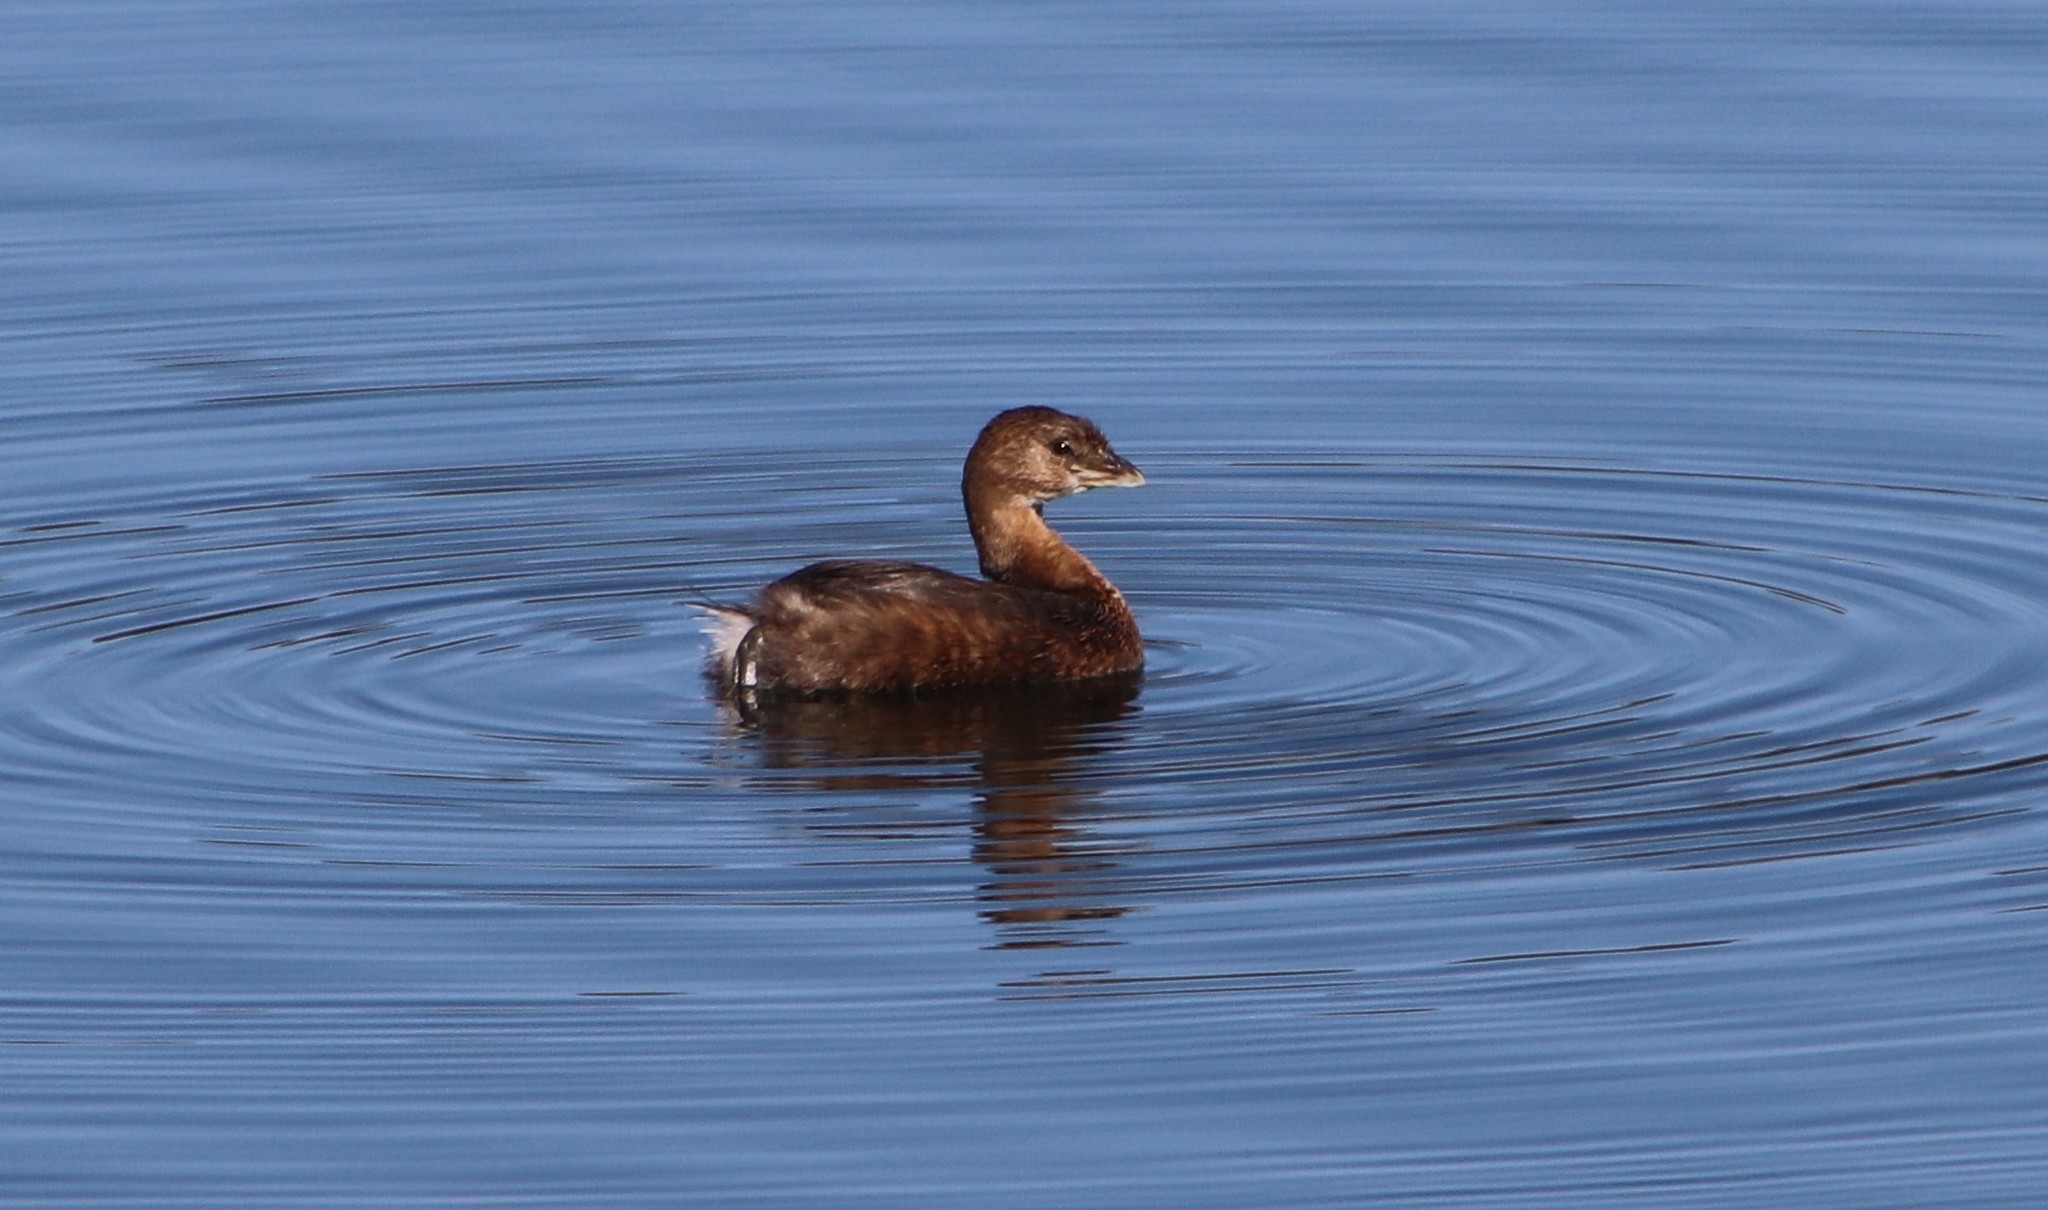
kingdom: Animalia
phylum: Chordata
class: Aves
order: Podicipediformes
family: Podicipedidae
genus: Podilymbus
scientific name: Podilymbus podiceps
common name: Pied-billed grebe
